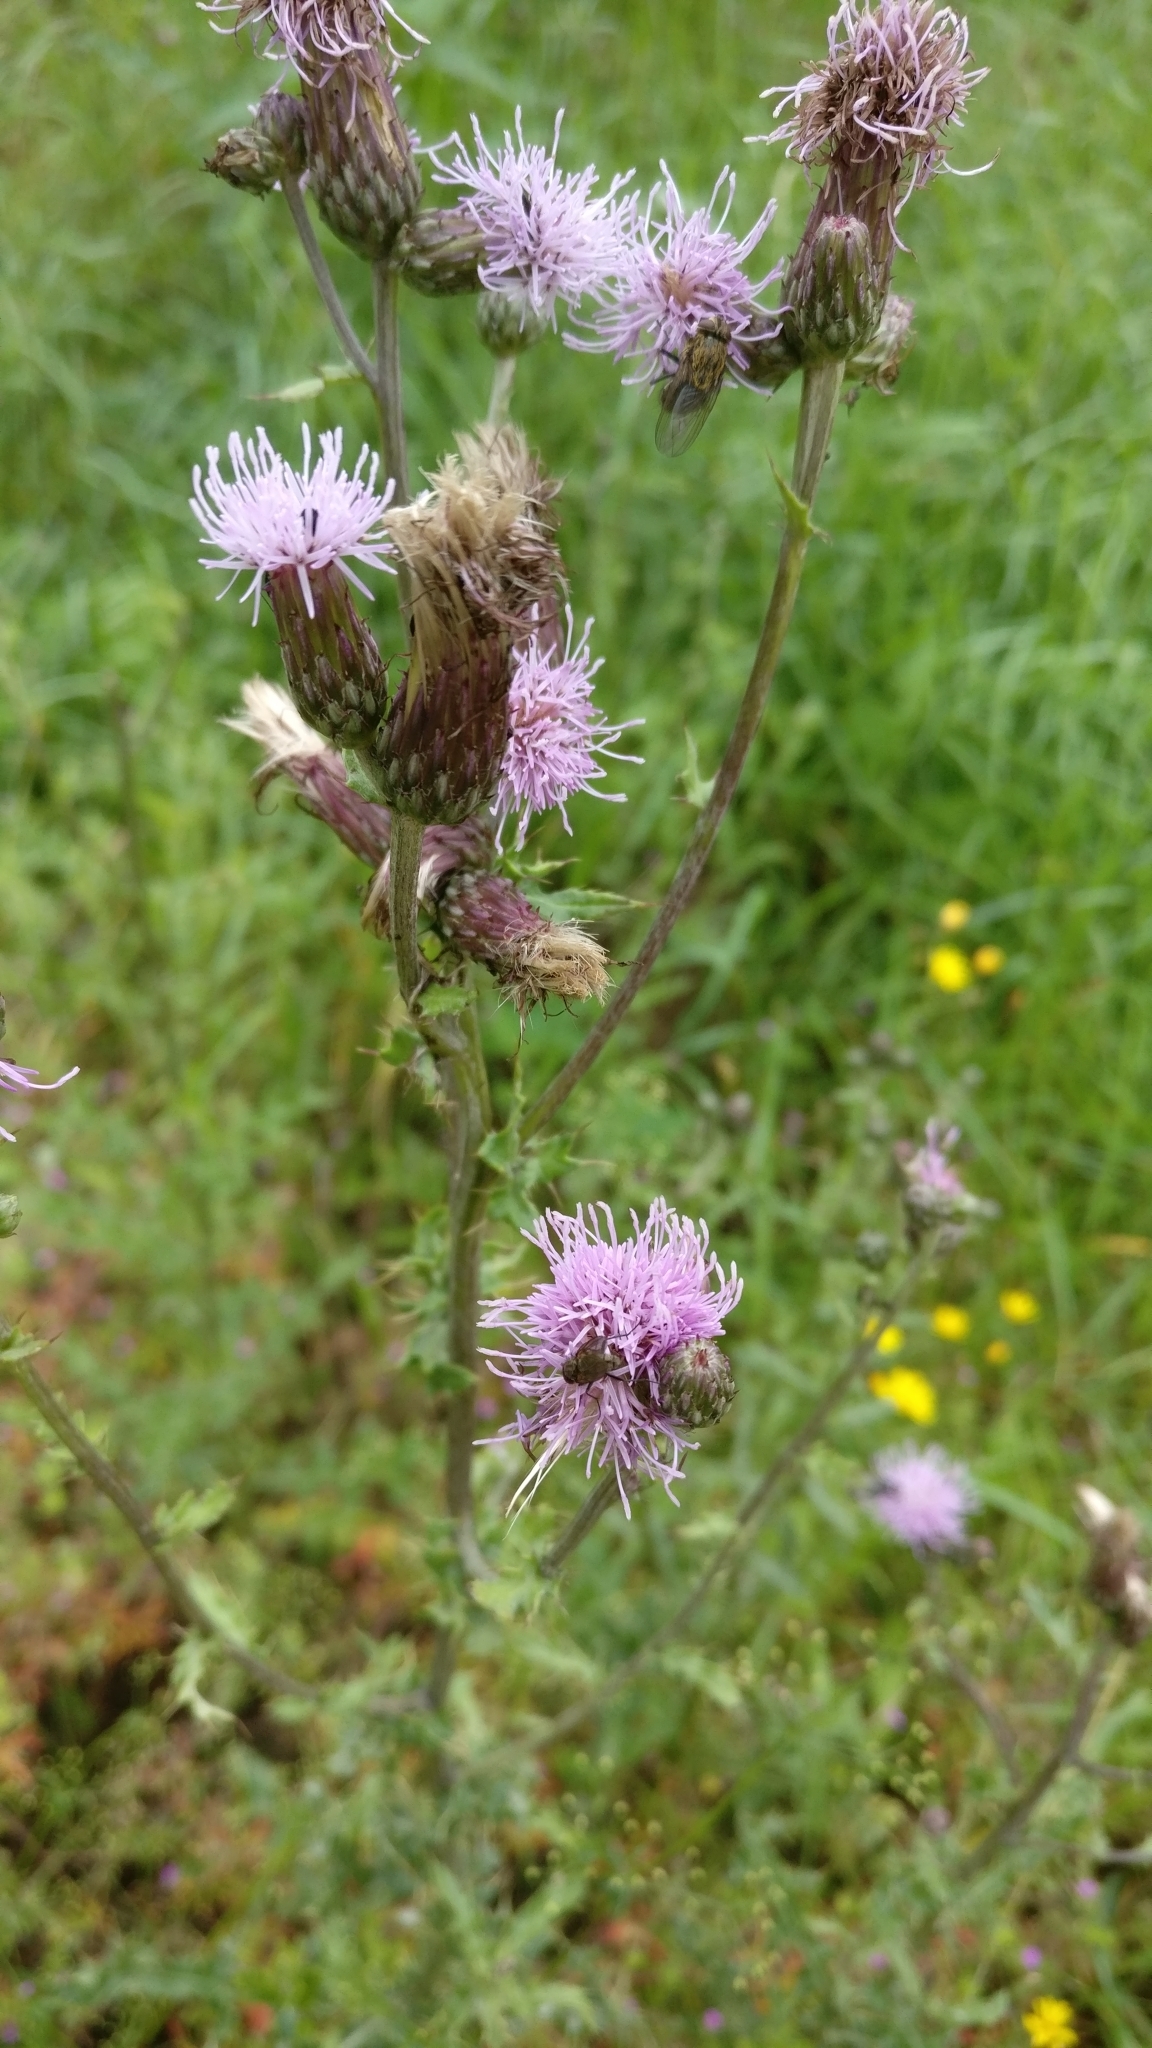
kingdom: Plantae
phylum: Tracheophyta
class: Magnoliopsida
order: Asterales
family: Asteraceae
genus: Cirsium
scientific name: Cirsium arvense
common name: Creeping thistle
